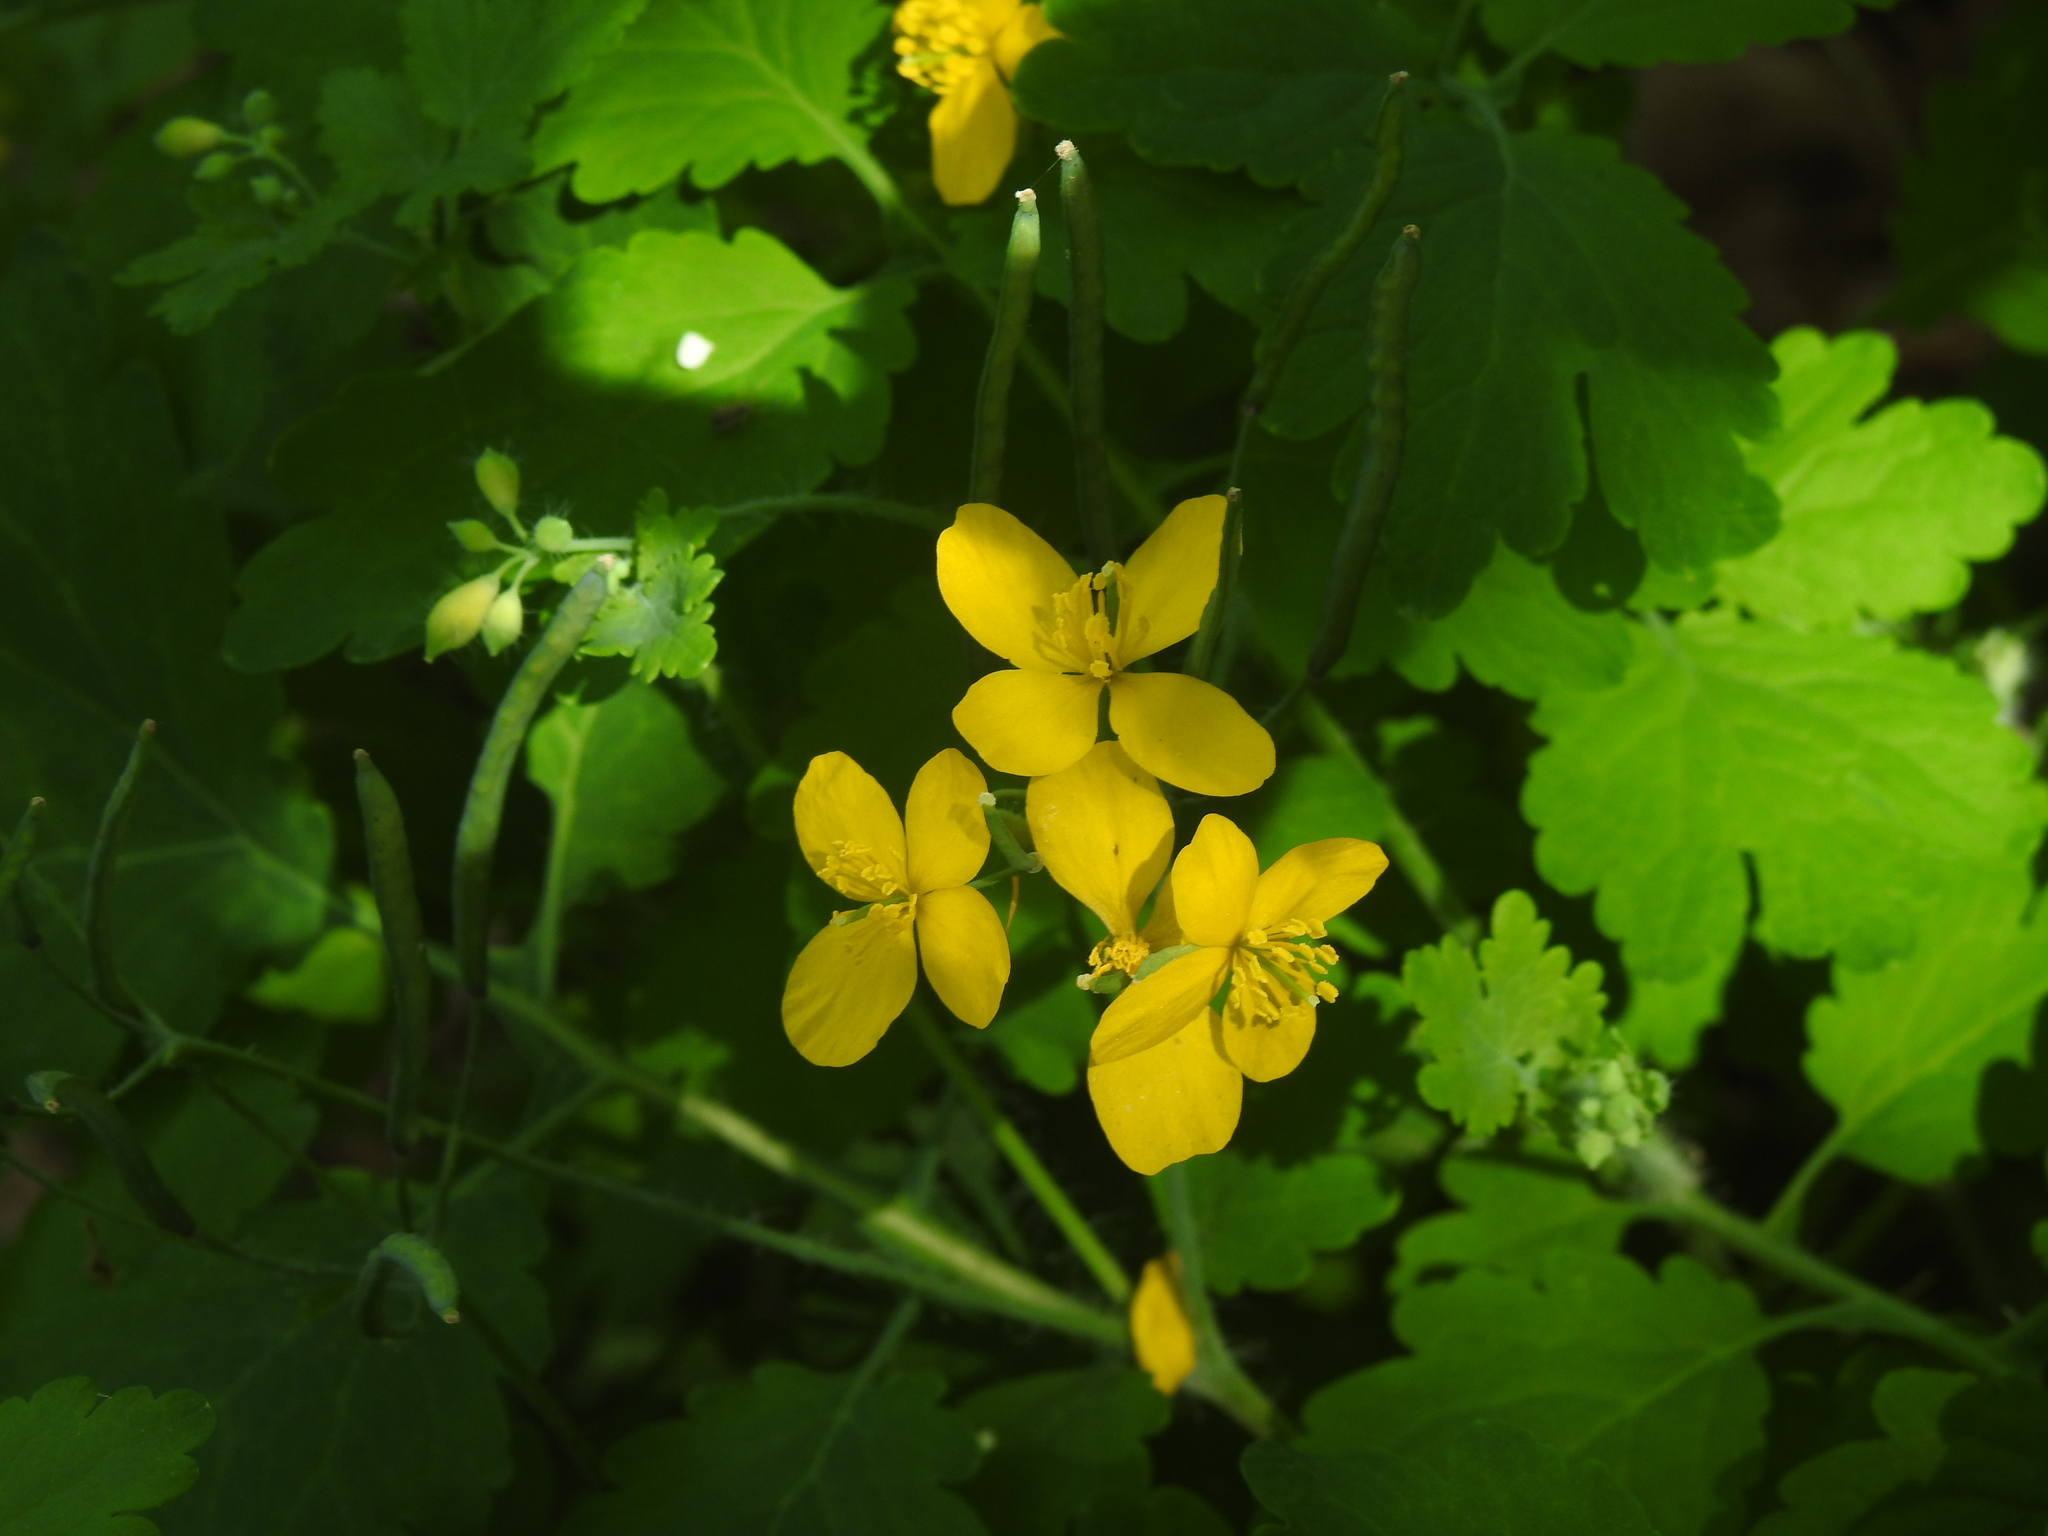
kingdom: Plantae
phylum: Tracheophyta
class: Magnoliopsida
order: Ranunculales
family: Papaveraceae
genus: Chelidonium
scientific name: Chelidonium majus
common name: Greater celandine
